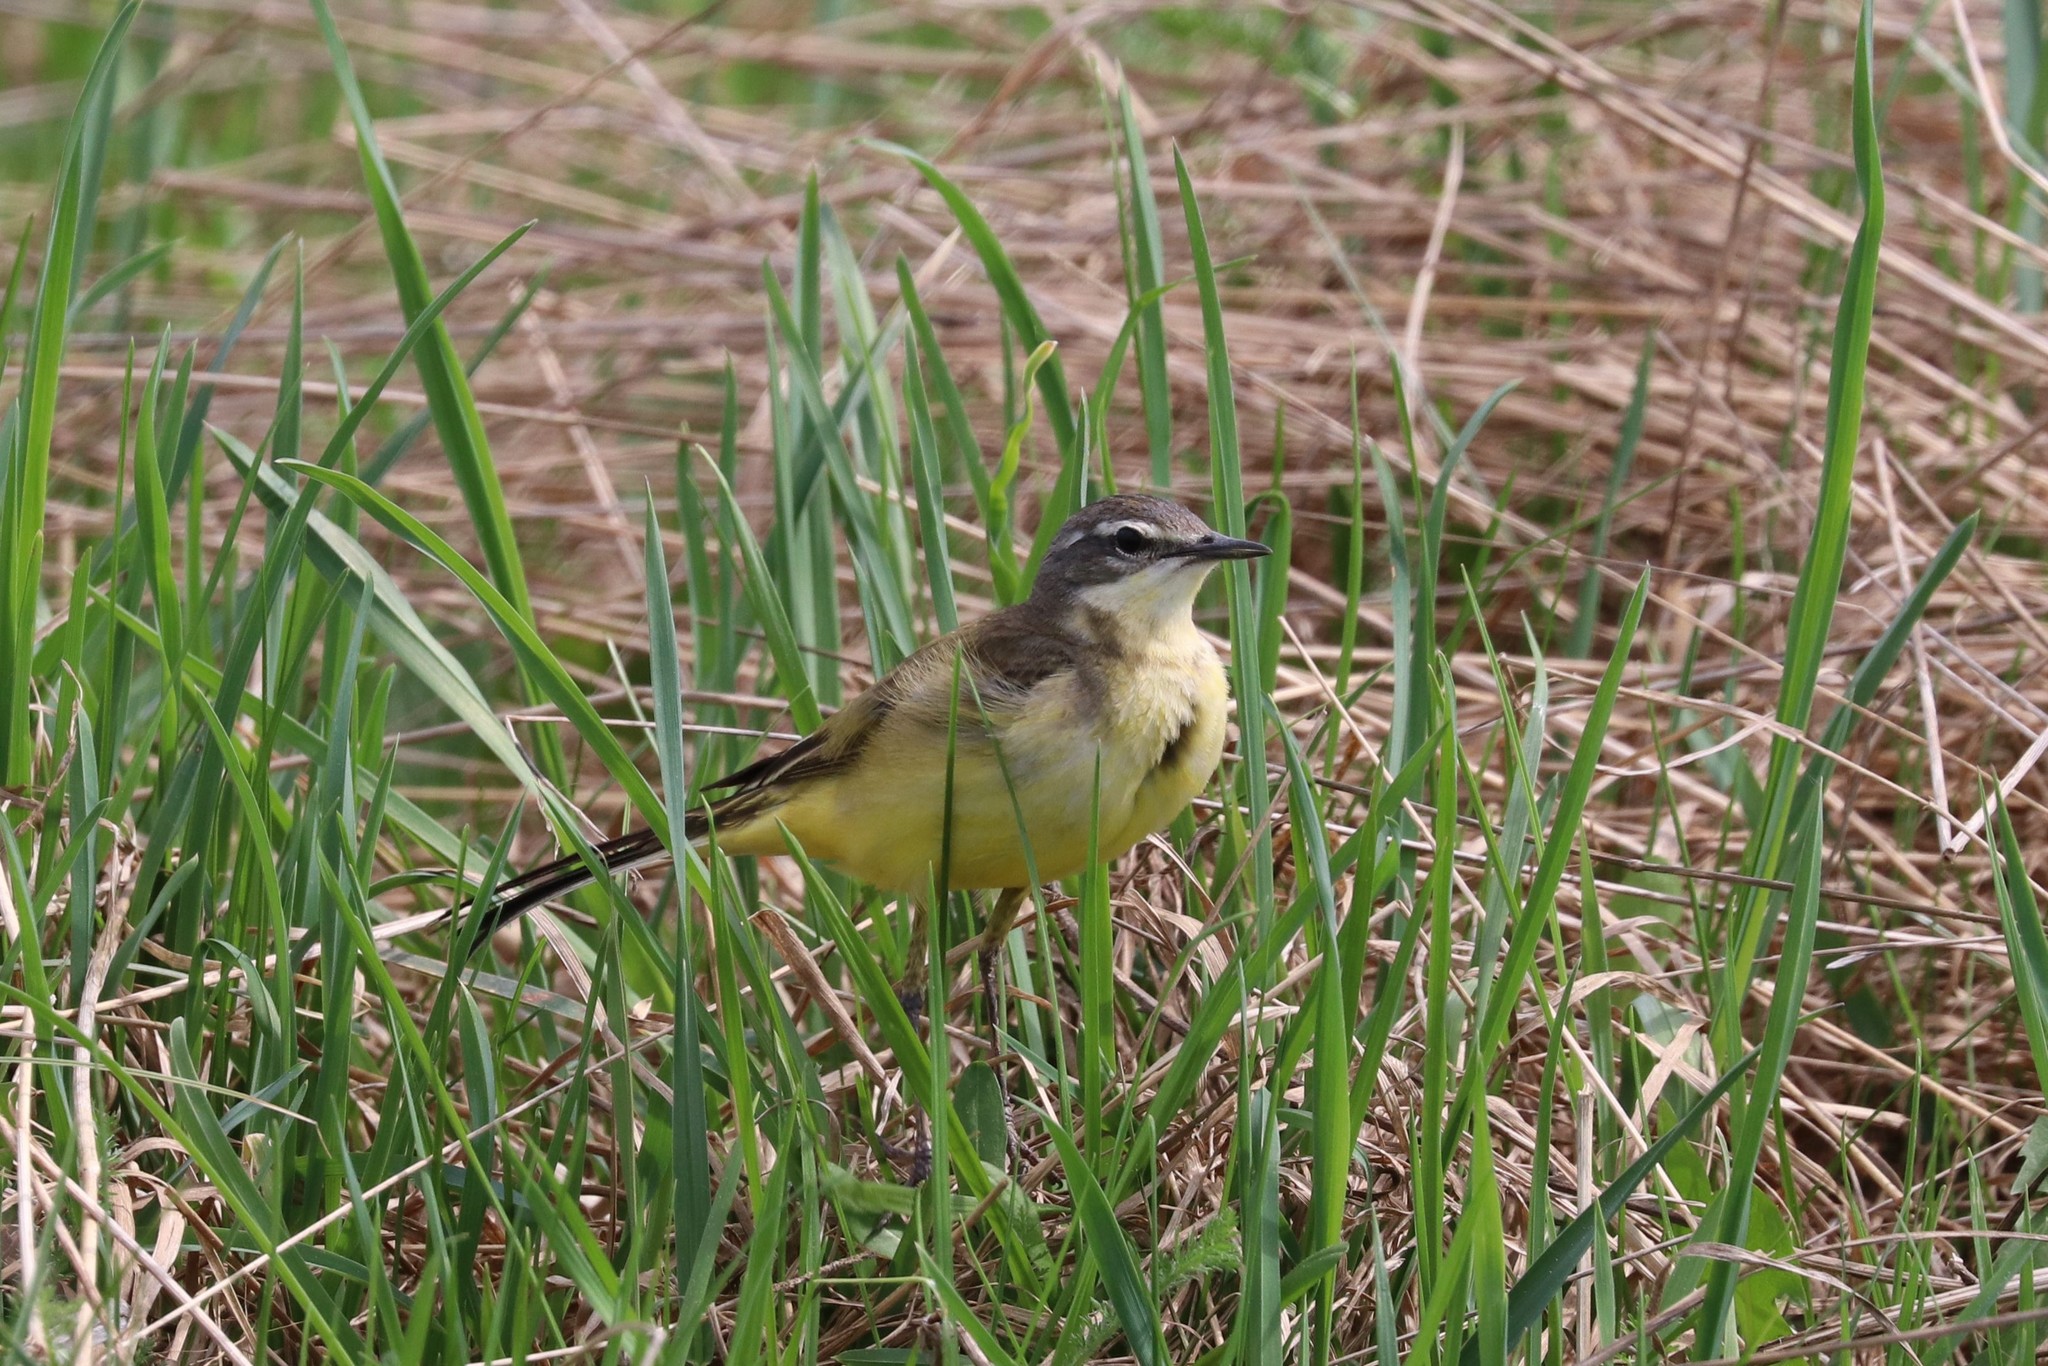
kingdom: Animalia
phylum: Chordata
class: Aves
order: Passeriformes
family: Motacillidae
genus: Motacilla
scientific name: Motacilla flava
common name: Western yellow wagtail
